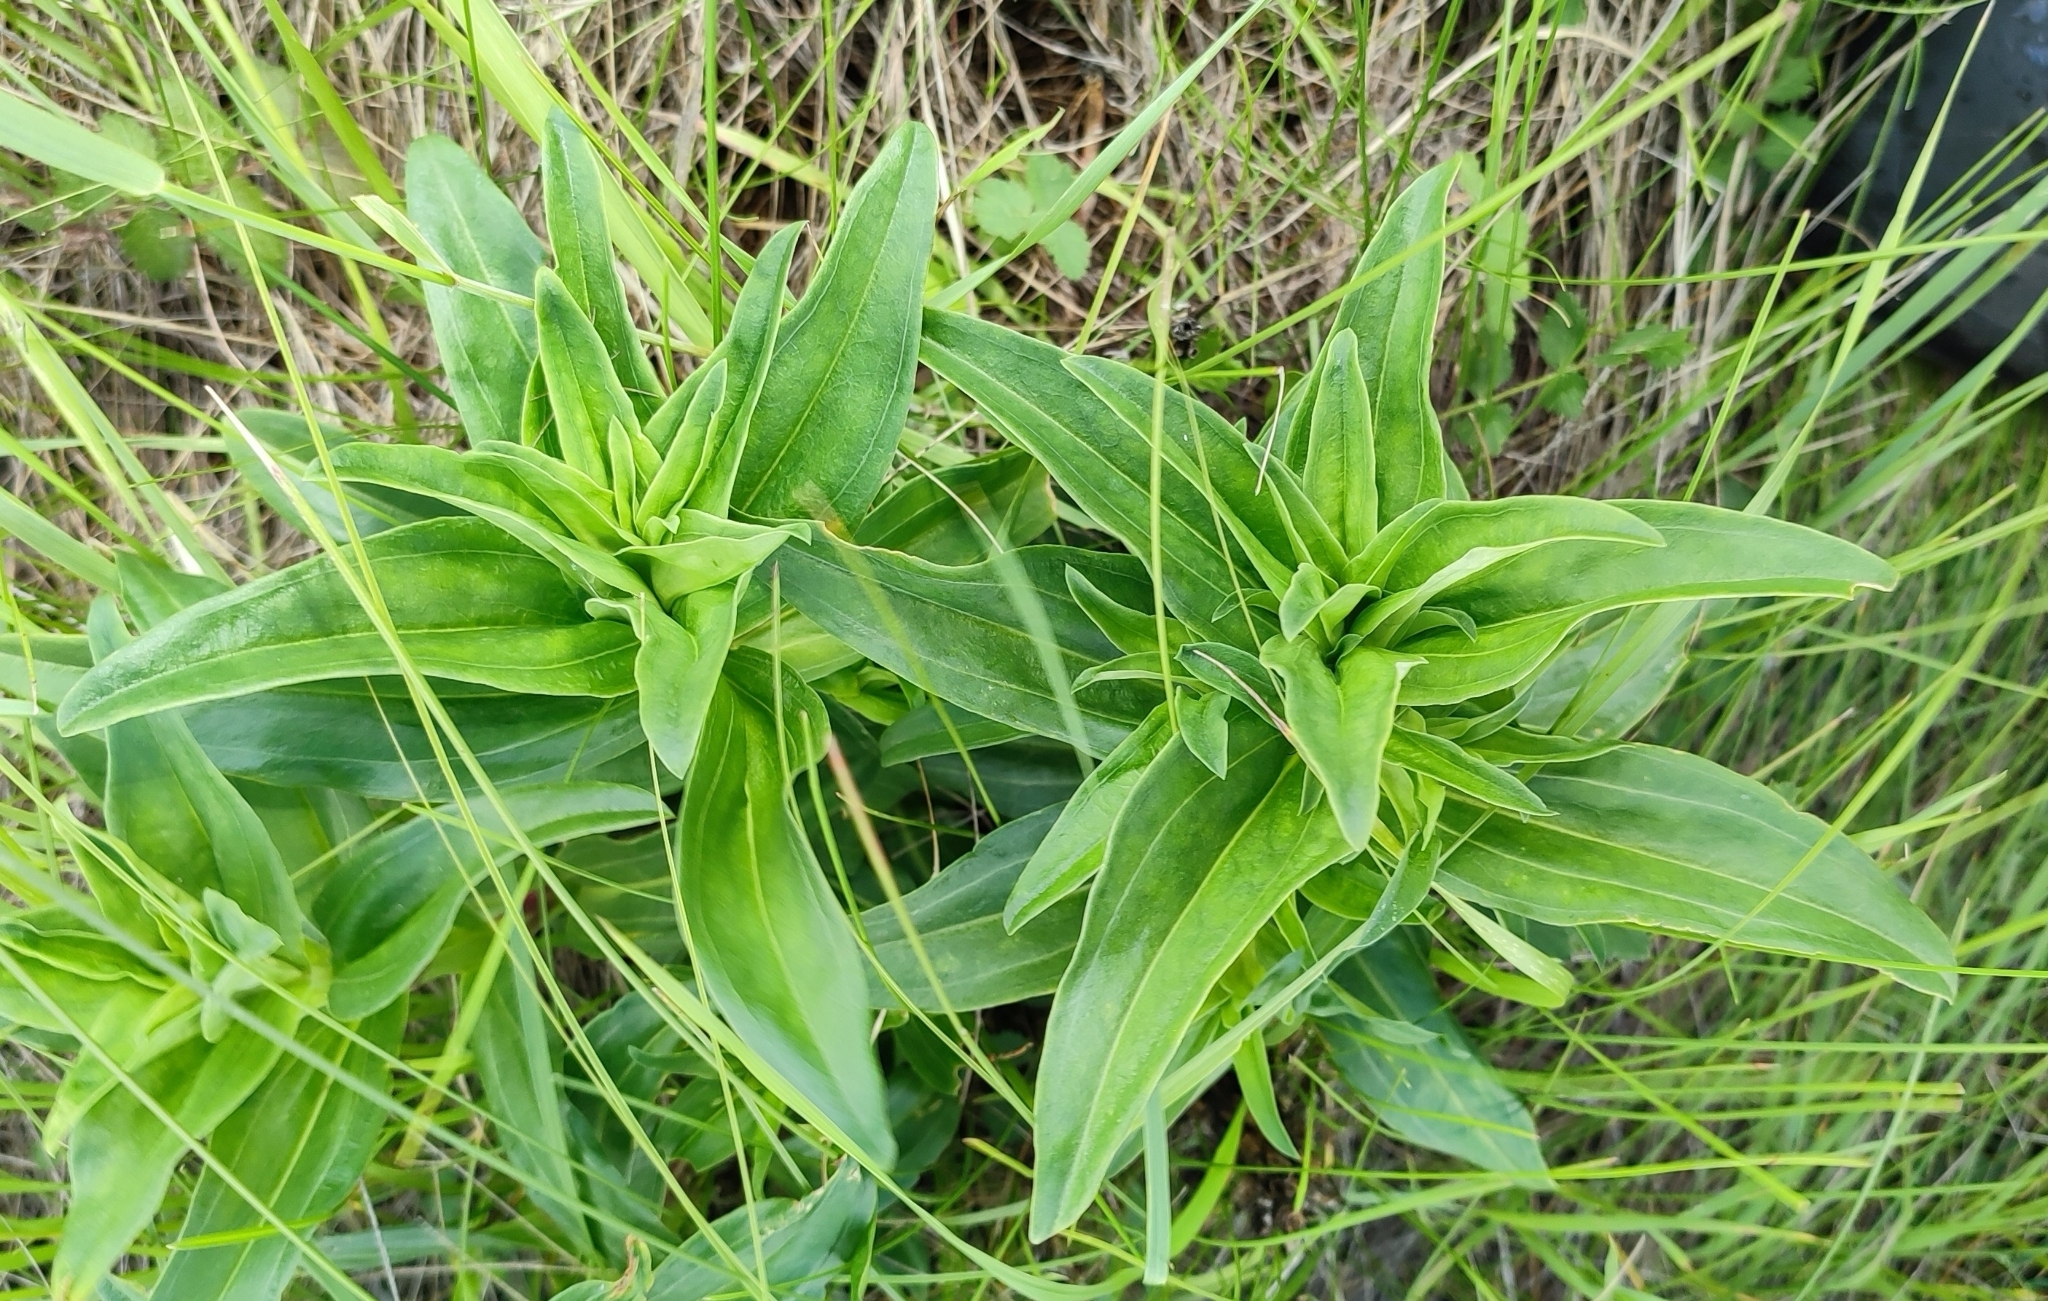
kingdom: Plantae
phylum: Tracheophyta
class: Magnoliopsida
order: Gentianales
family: Gentianaceae
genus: Gentiana
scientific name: Gentiana cruciata
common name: Cross gentian
